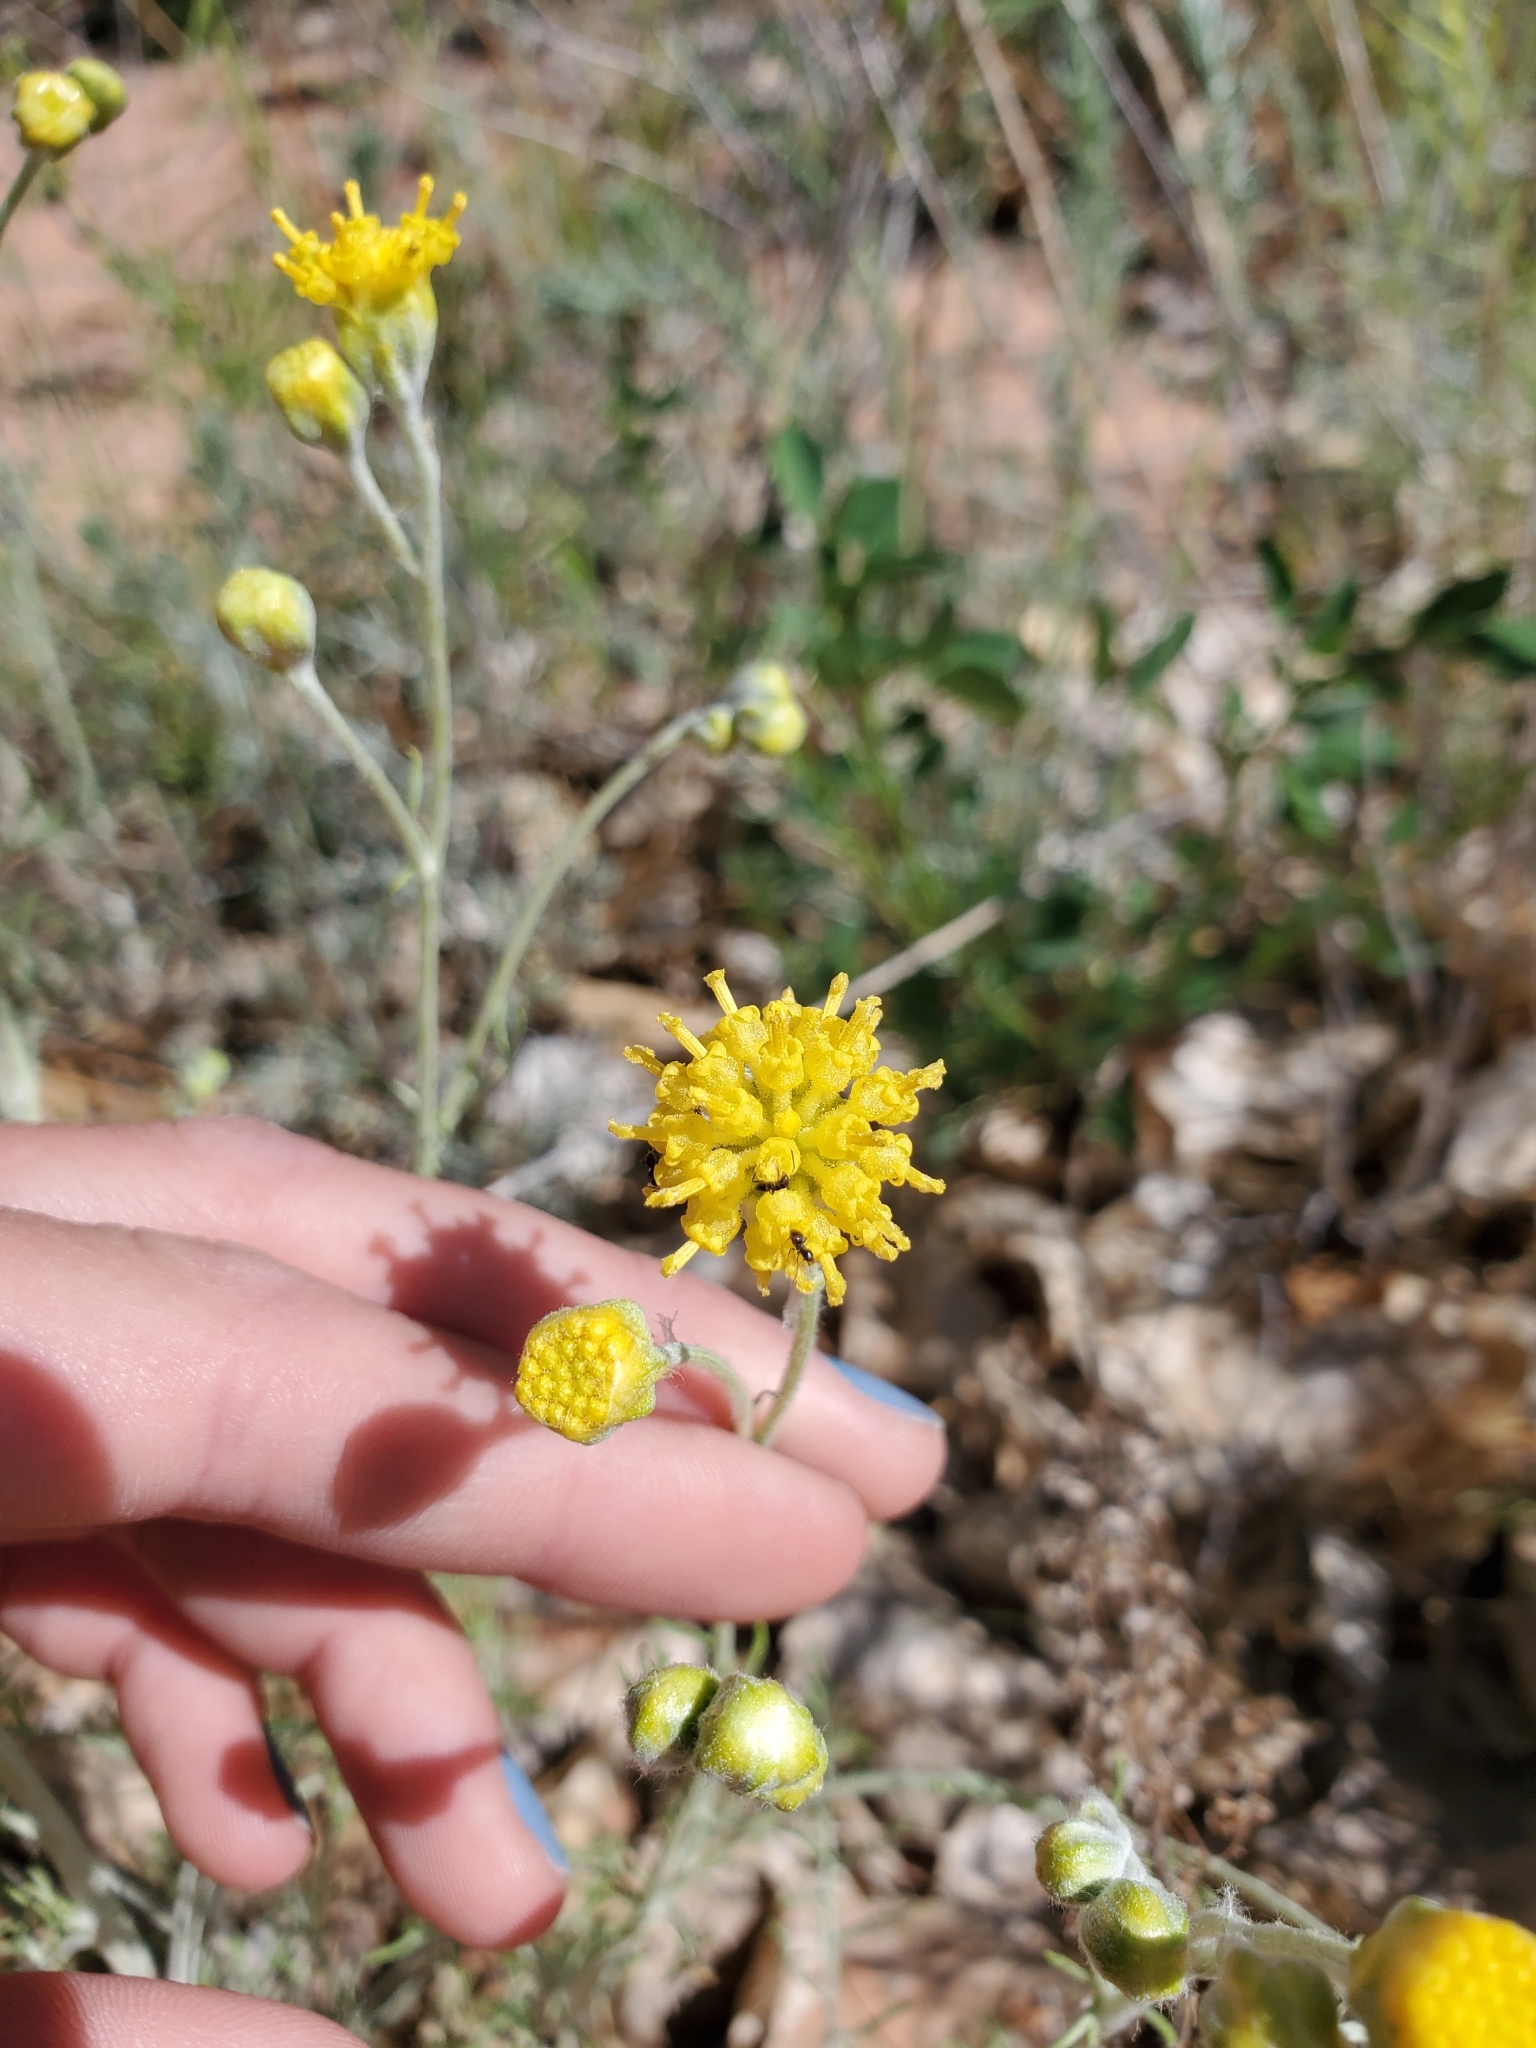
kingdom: Plantae
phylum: Tracheophyta
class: Magnoliopsida
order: Asterales
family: Asteraceae
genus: Hymenopappus
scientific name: Hymenopappus filifolius
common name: Columbia cutleaf
